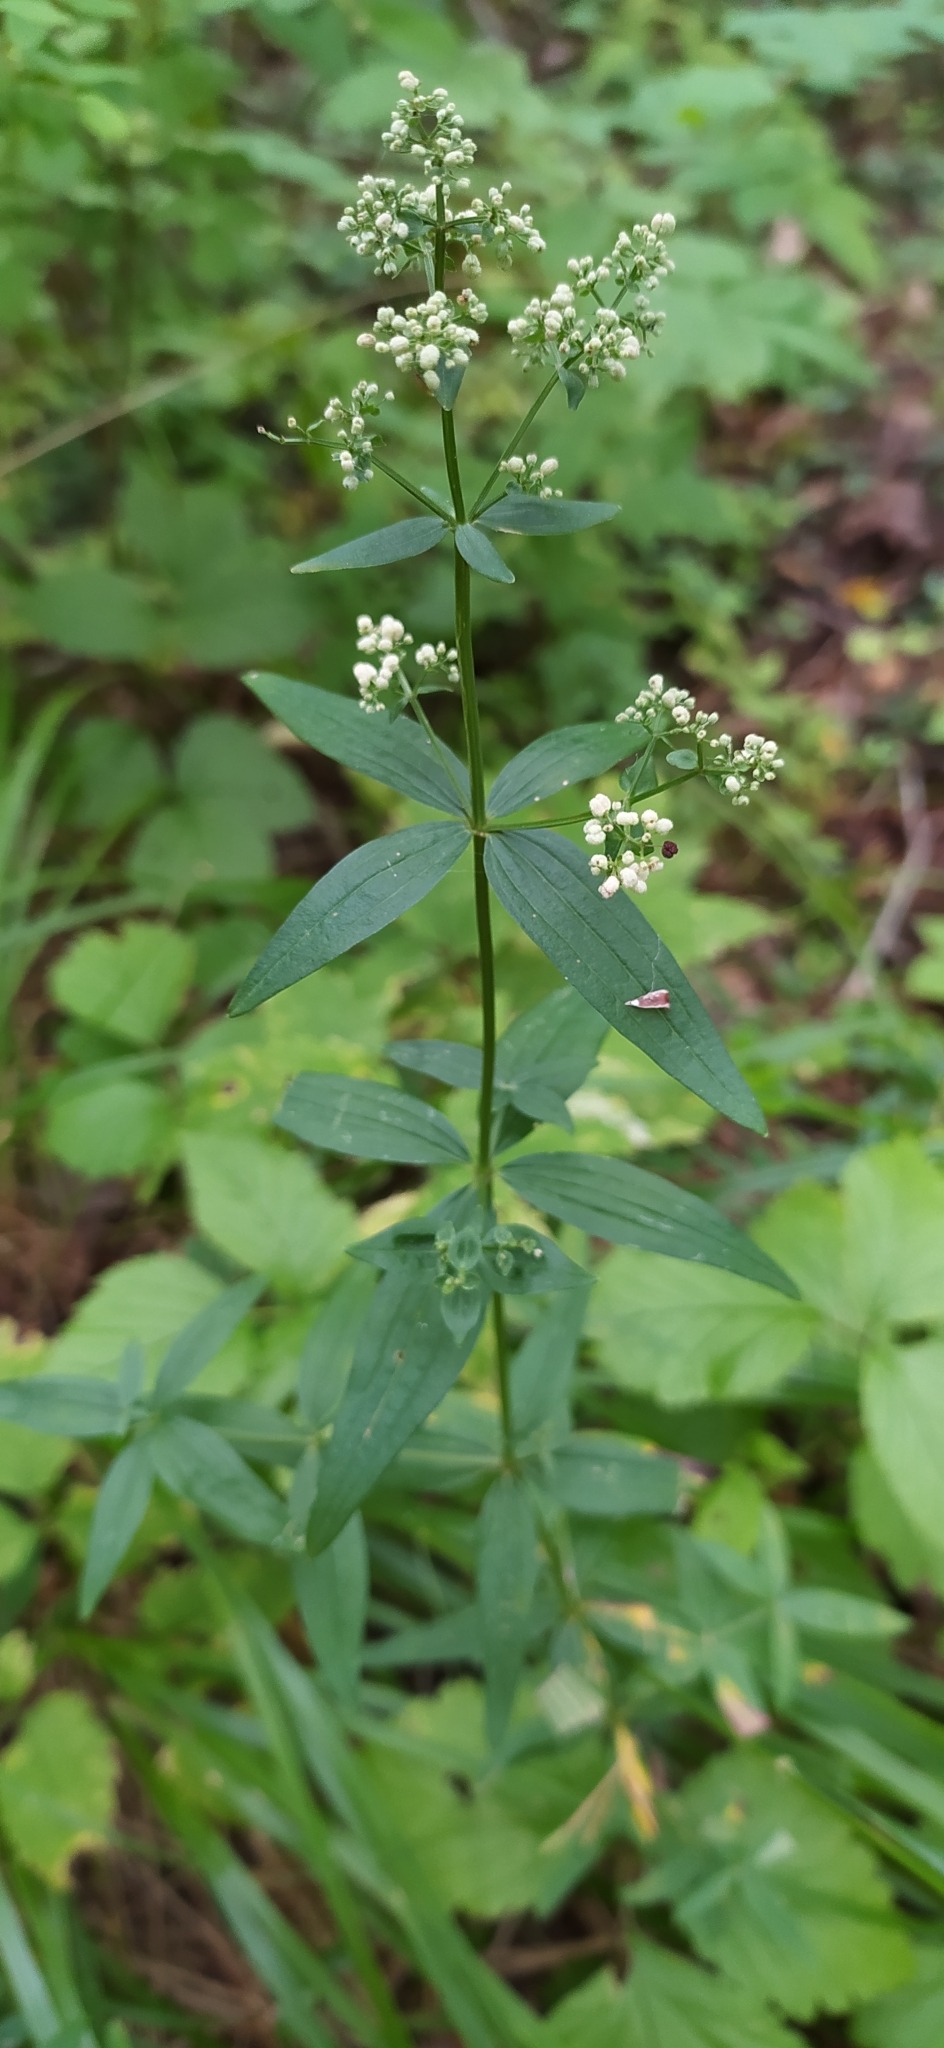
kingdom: Plantae
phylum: Tracheophyta
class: Magnoliopsida
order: Gentianales
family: Rubiaceae
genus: Galium
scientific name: Galium boreale
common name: Northern bedstraw
